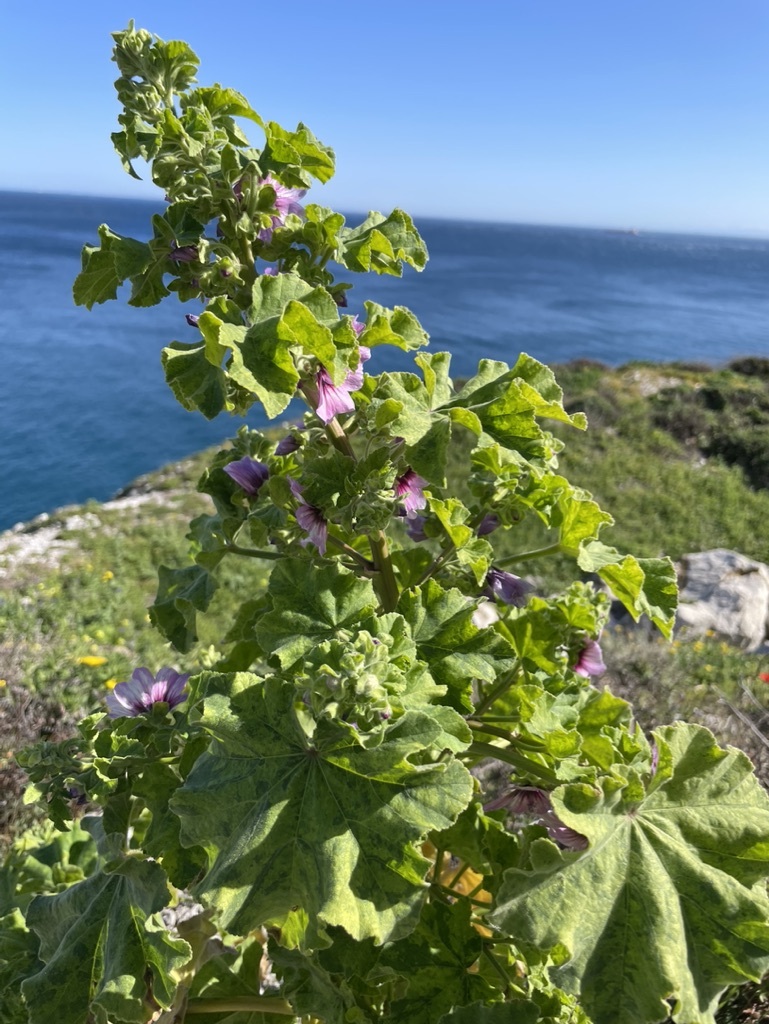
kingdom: Plantae
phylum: Tracheophyta
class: Magnoliopsida
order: Malvales
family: Malvaceae
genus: Malva
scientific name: Malva arborea
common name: Tree mallow
